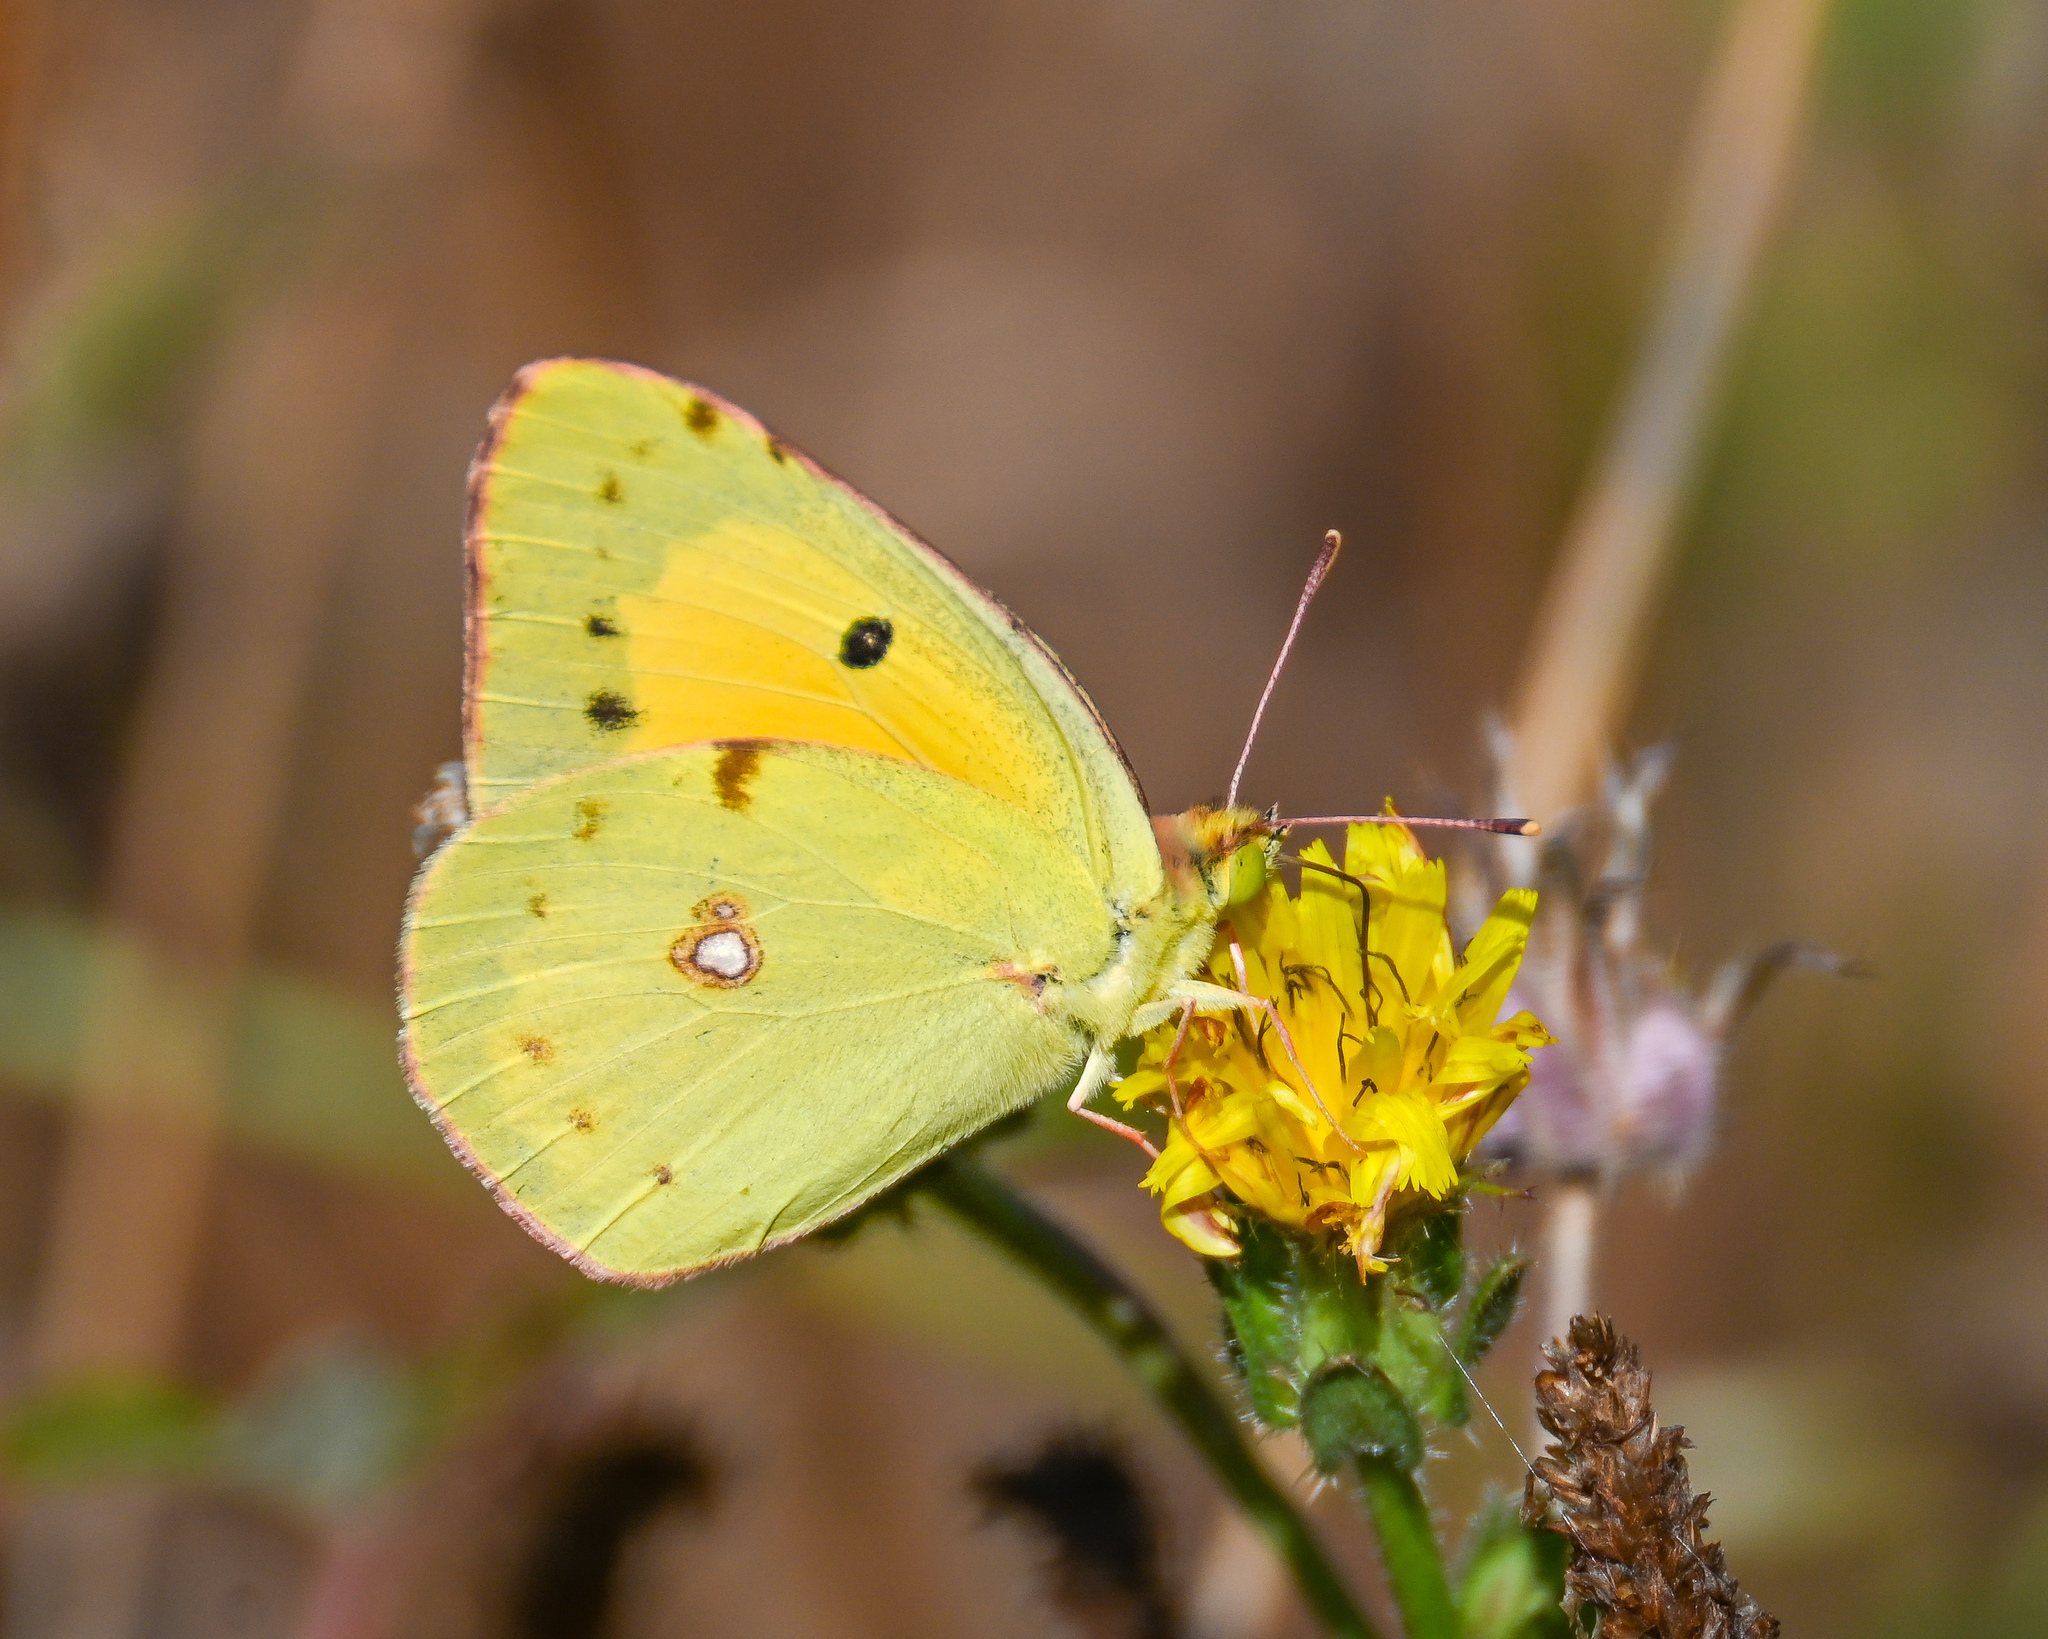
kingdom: Animalia
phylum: Arthropoda
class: Insecta
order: Lepidoptera
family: Pieridae
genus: Colias
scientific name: Colias croceus
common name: Clouded yellow
